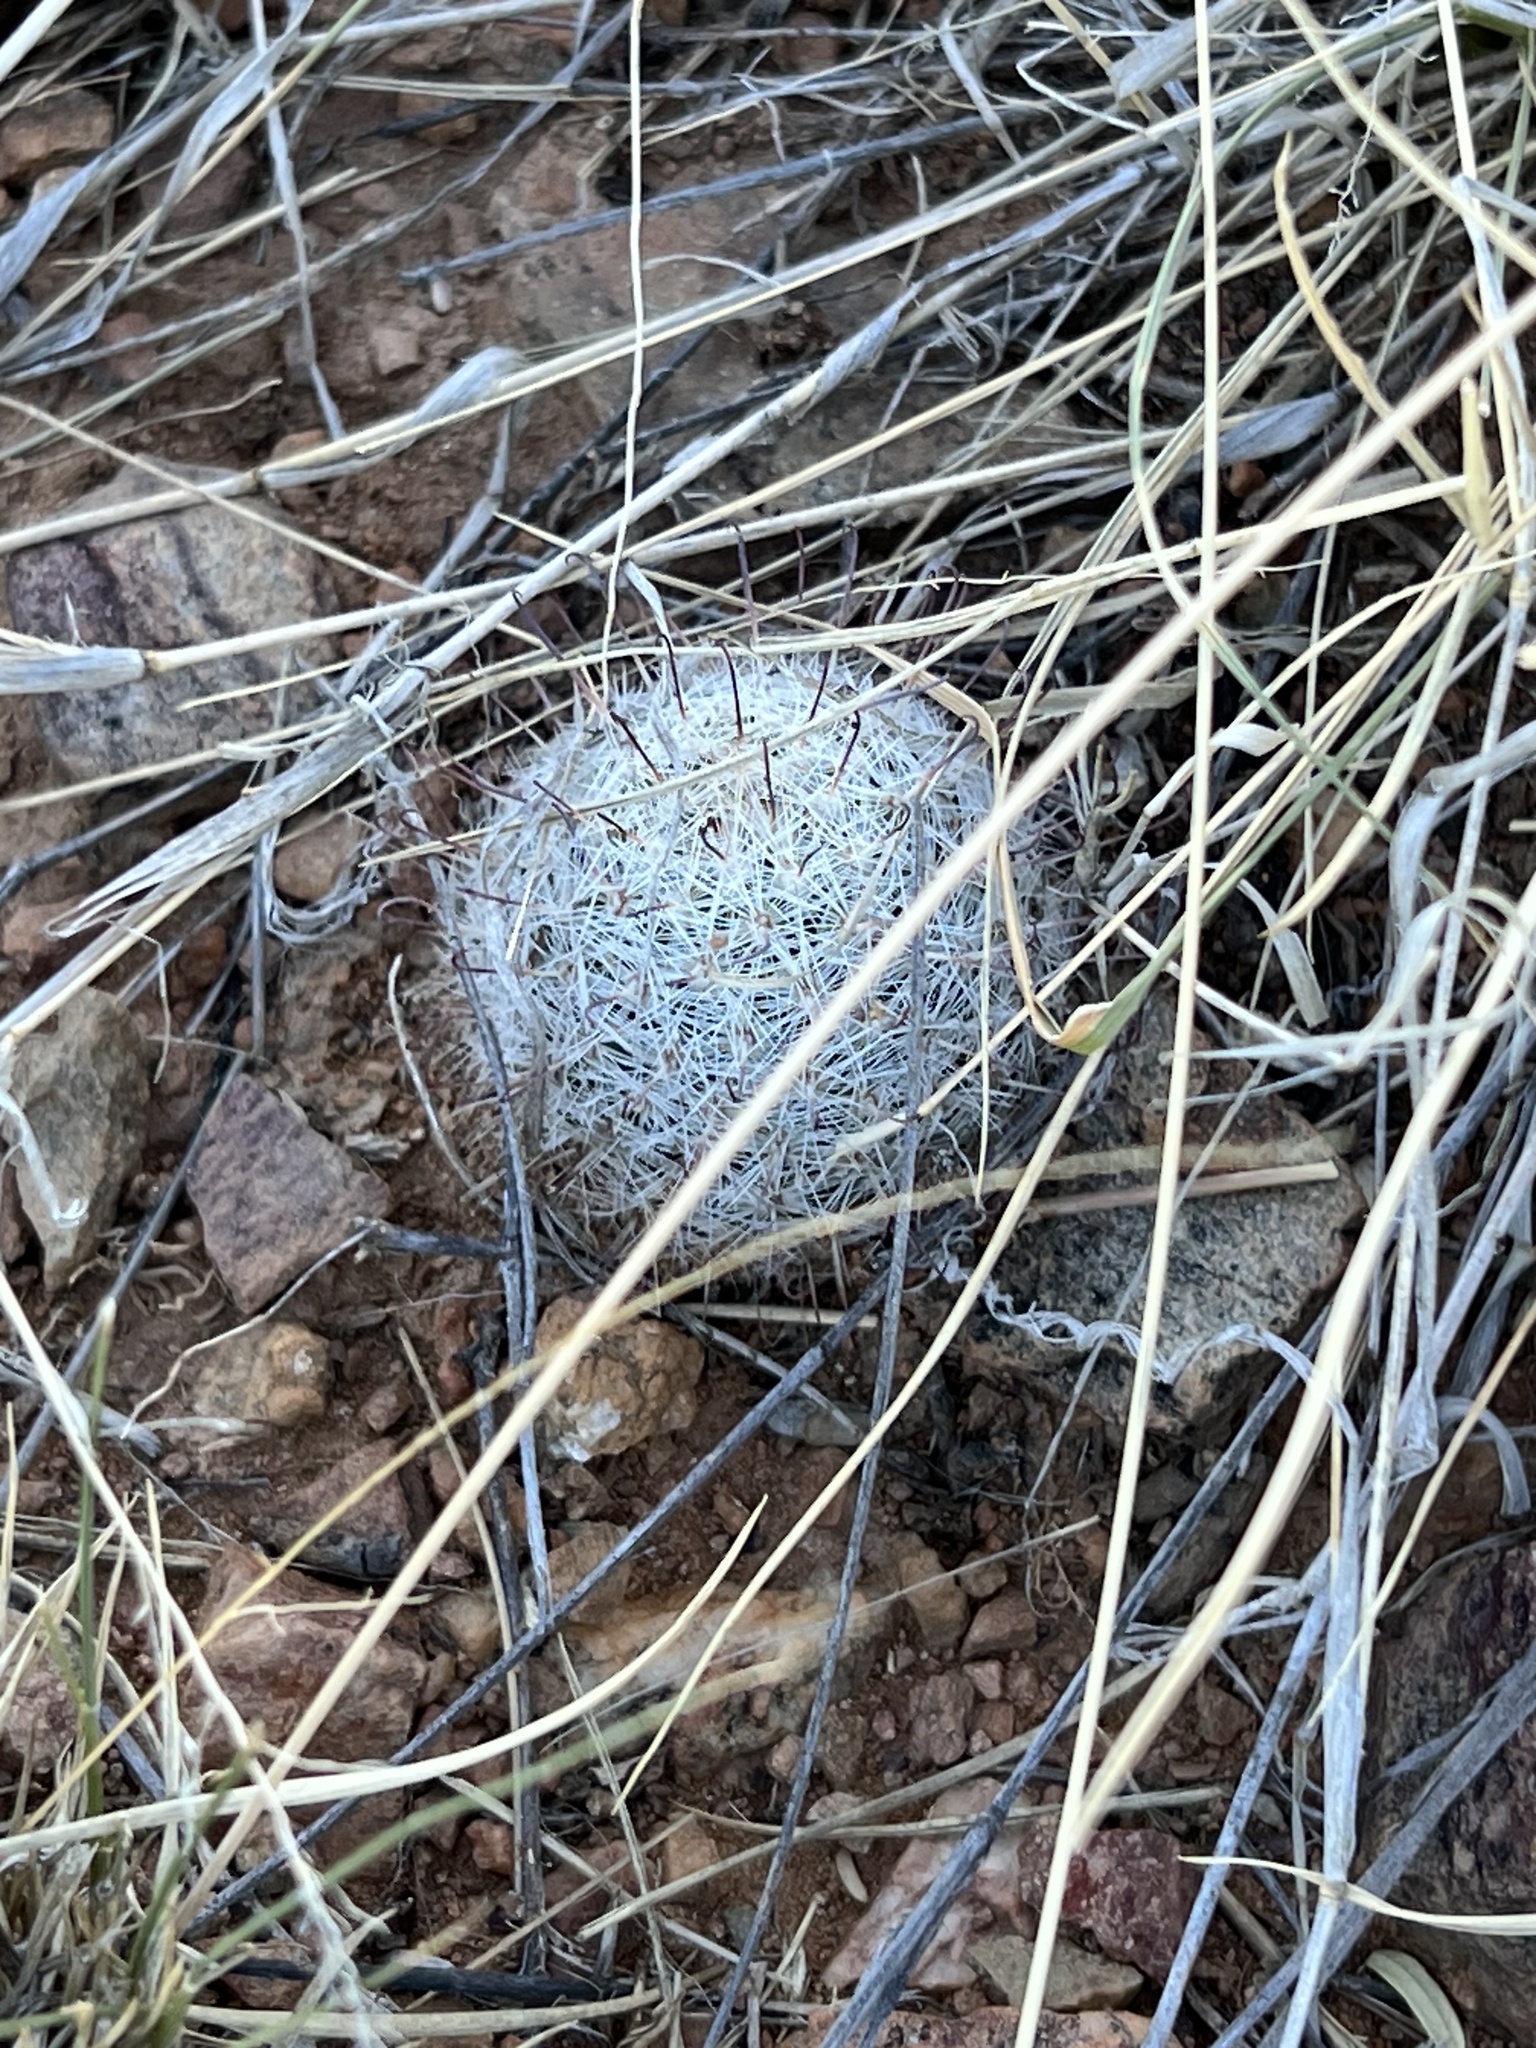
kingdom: Plantae
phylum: Tracheophyta
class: Magnoliopsida
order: Caryophyllales
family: Cactaceae
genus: Cochemiea
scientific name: Cochemiea grahamii
